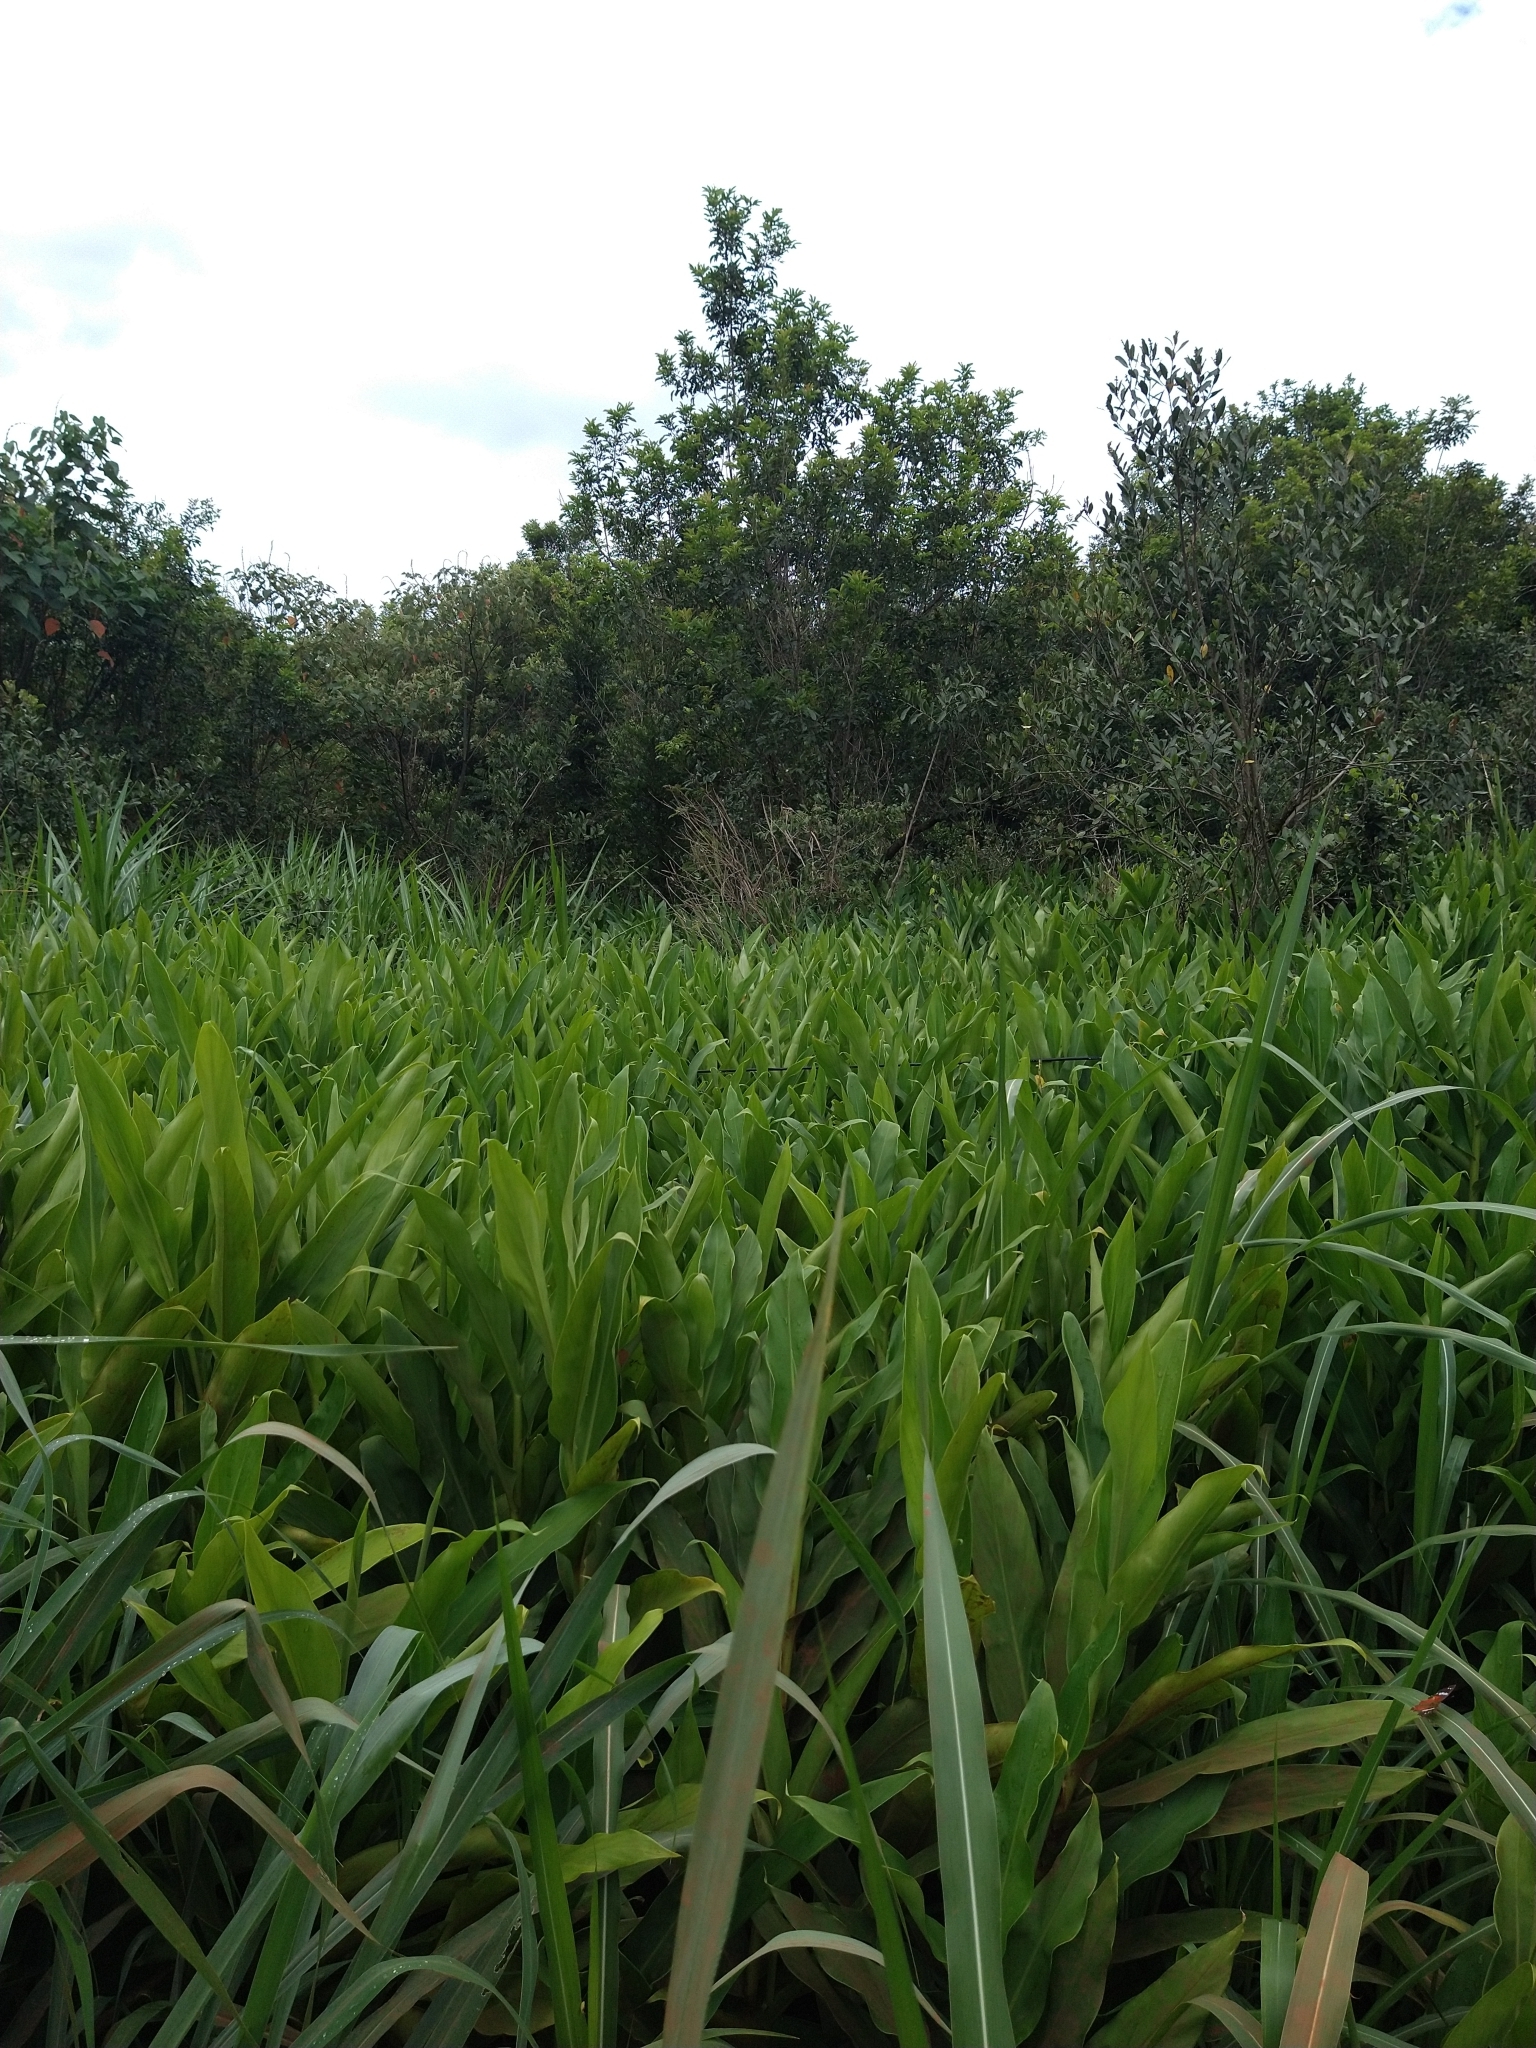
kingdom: Plantae
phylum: Tracheophyta
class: Liliopsida
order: Zingiberales
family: Zingiberaceae
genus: Hedychium
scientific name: Hedychium coronarium
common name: White garland-lily
